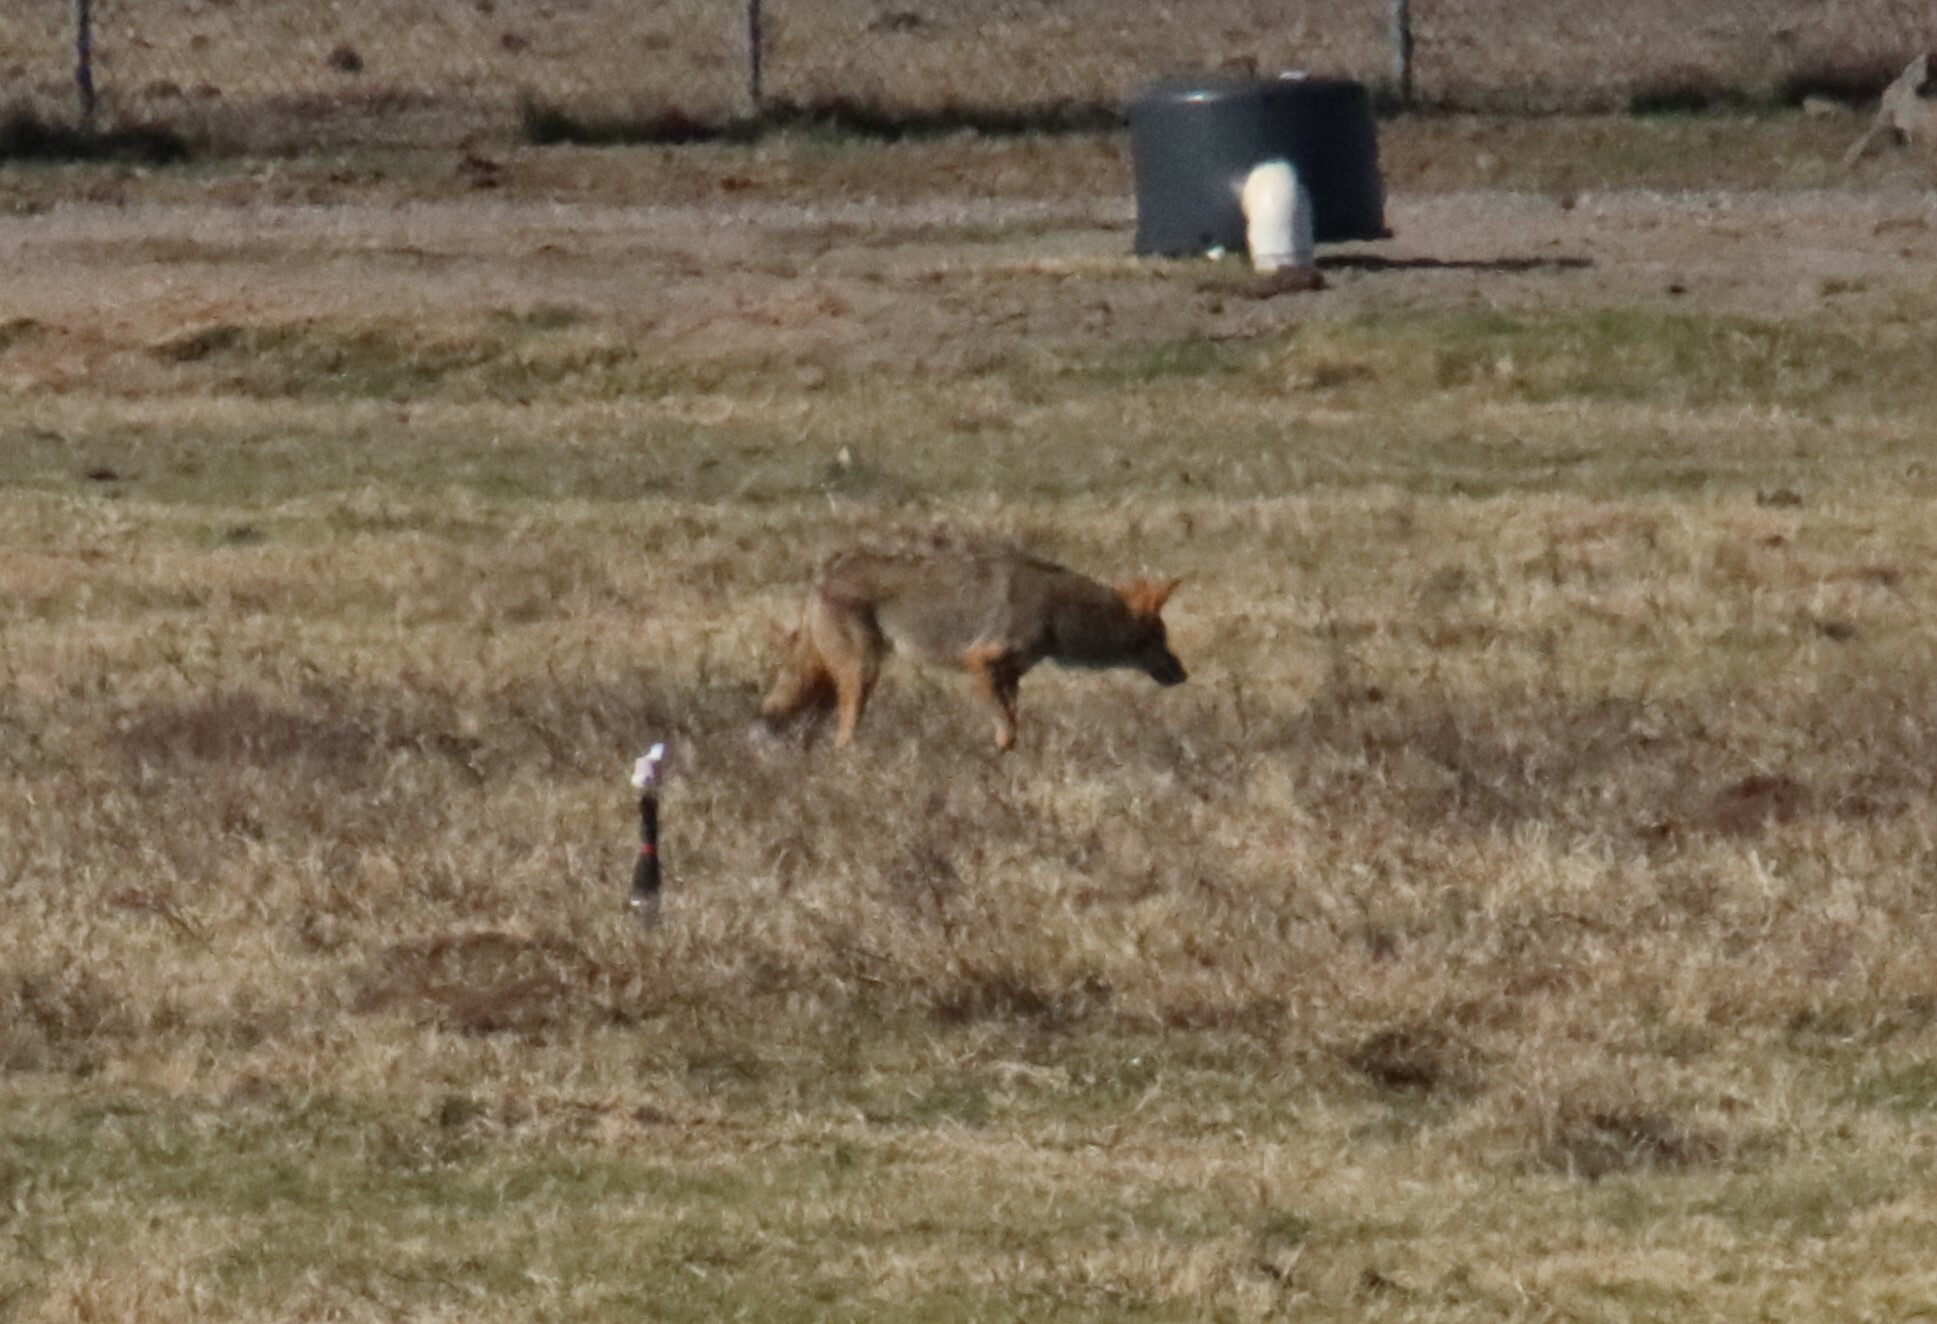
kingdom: Animalia
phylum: Chordata
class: Mammalia
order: Carnivora
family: Canidae
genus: Canis
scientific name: Canis latrans
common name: Coyote
